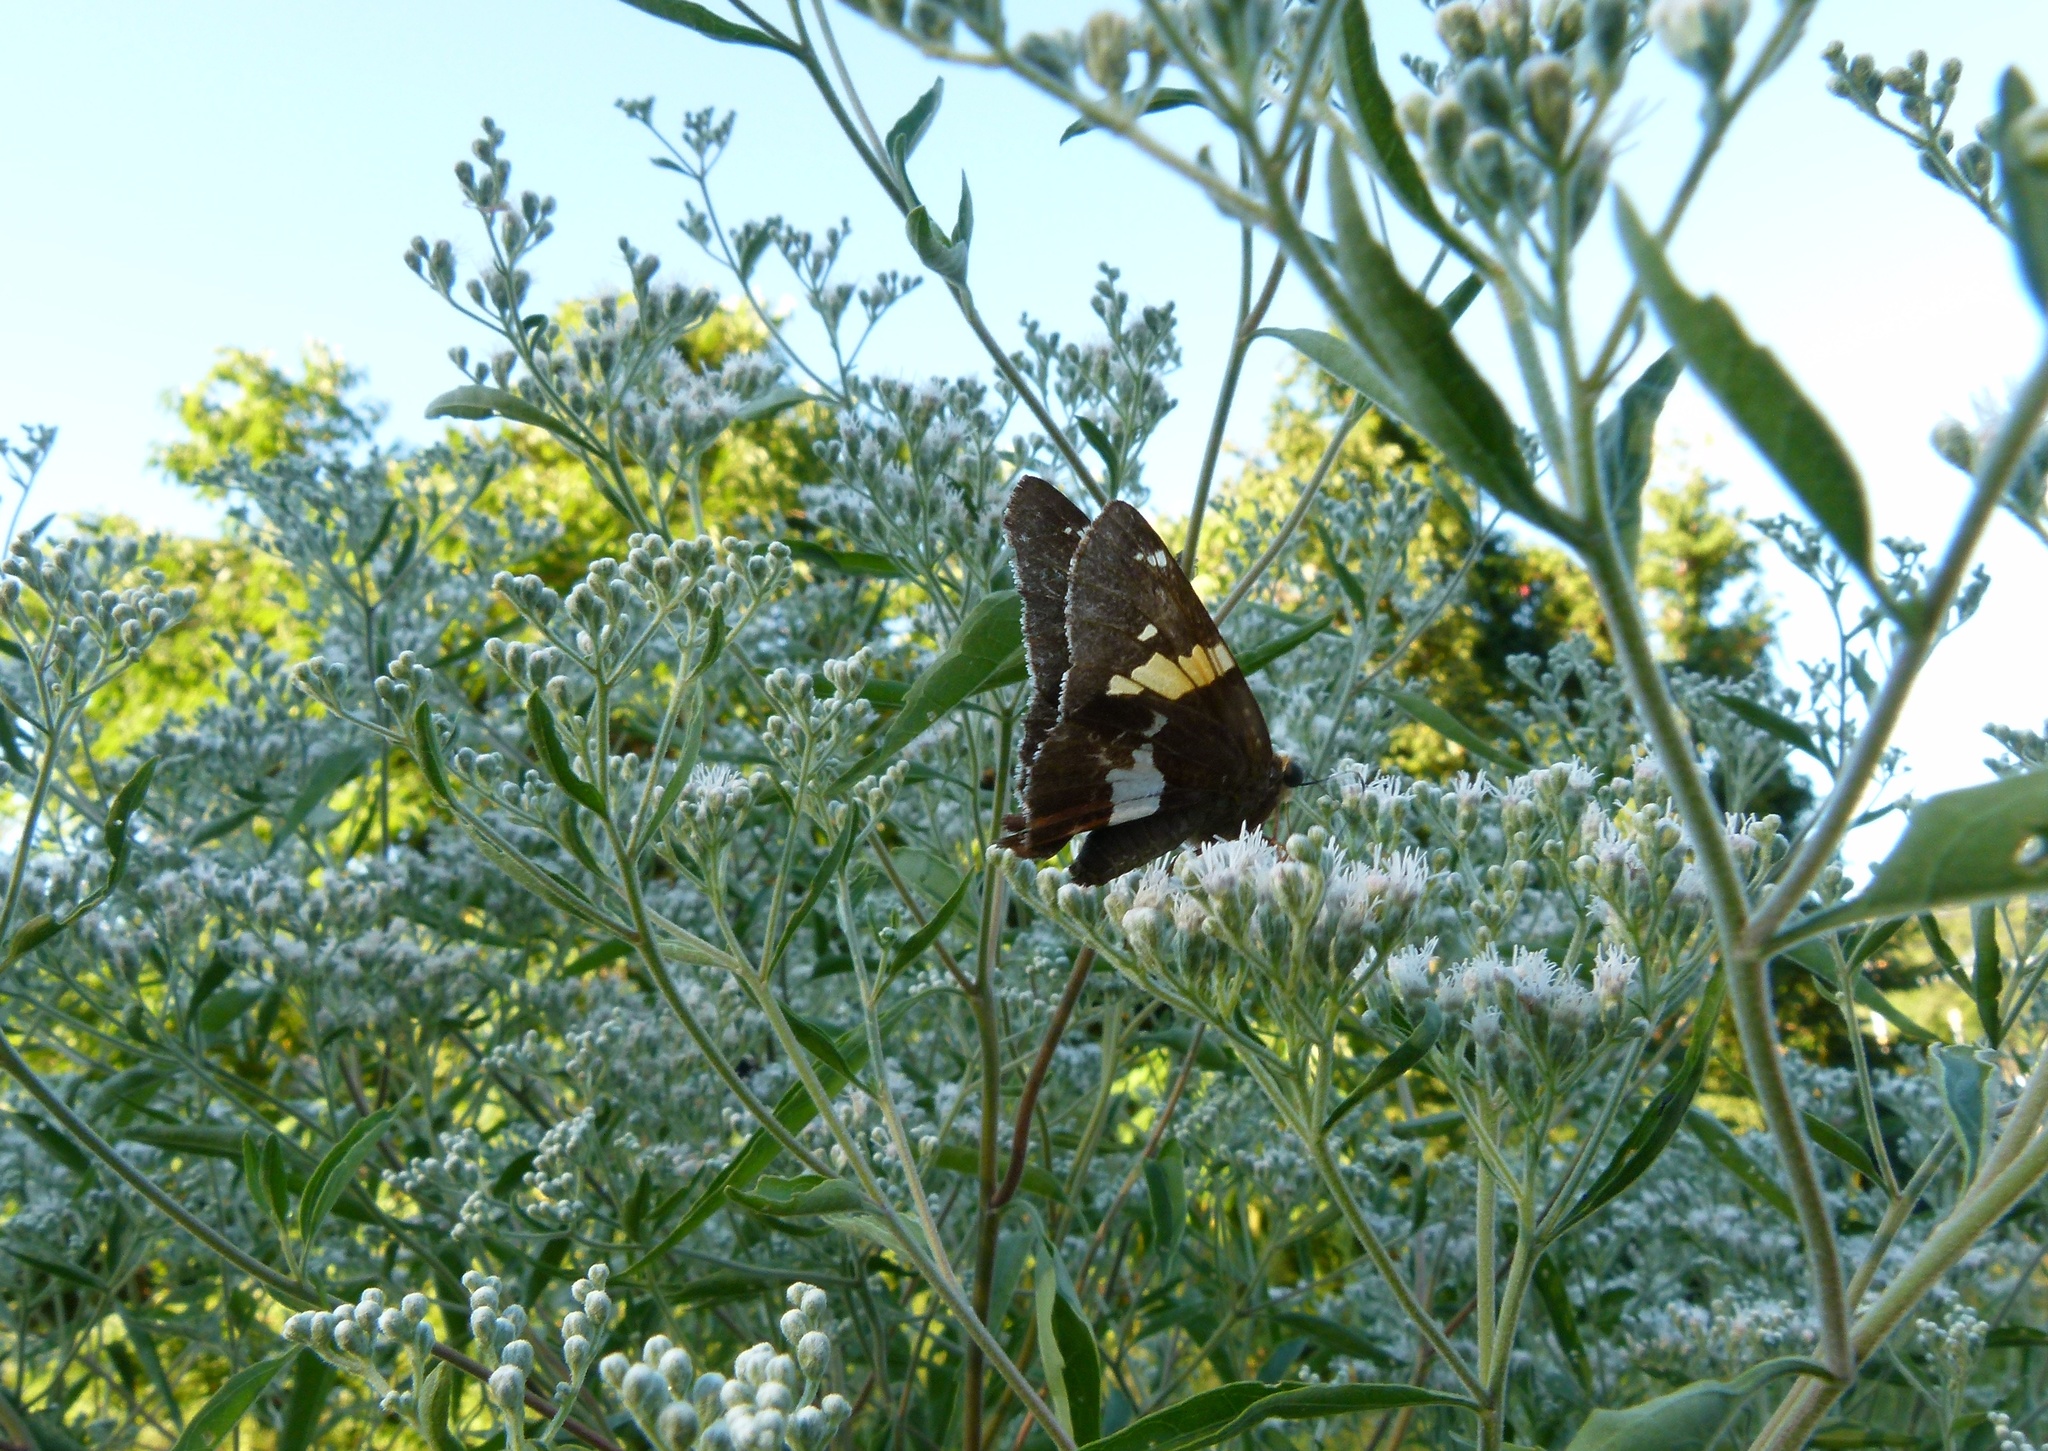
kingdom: Animalia
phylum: Arthropoda
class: Insecta
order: Lepidoptera
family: Hesperiidae
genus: Epargyreus
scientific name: Epargyreus clarus
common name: Silver-spotted skipper
